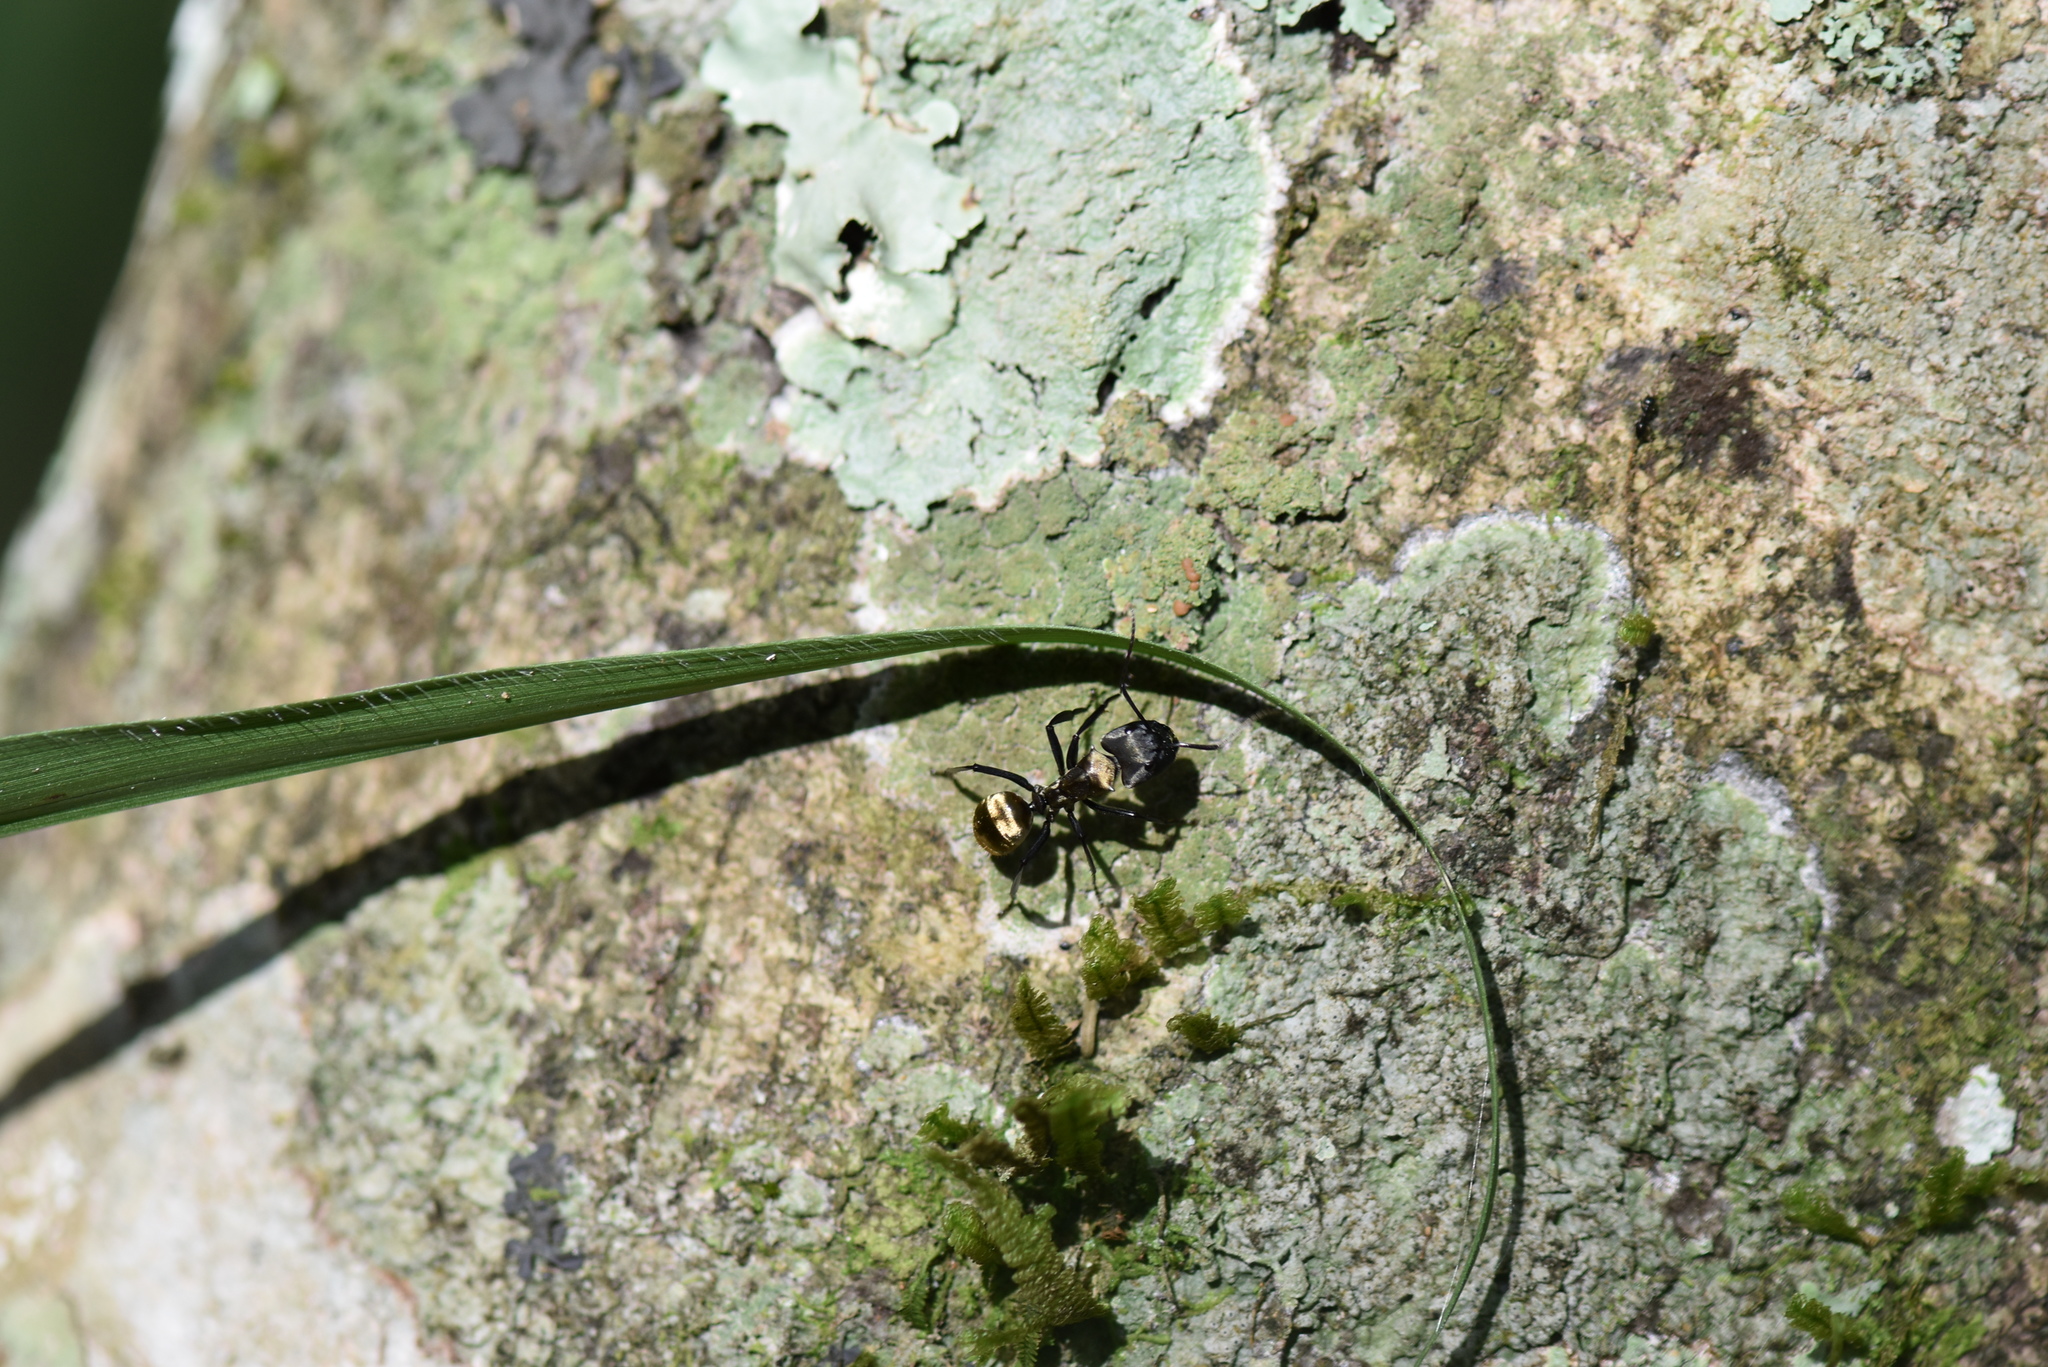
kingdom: Animalia
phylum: Arthropoda
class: Insecta
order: Hymenoptera
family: Formicidae
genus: Camponotus
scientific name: Camponotus sericeiventris
